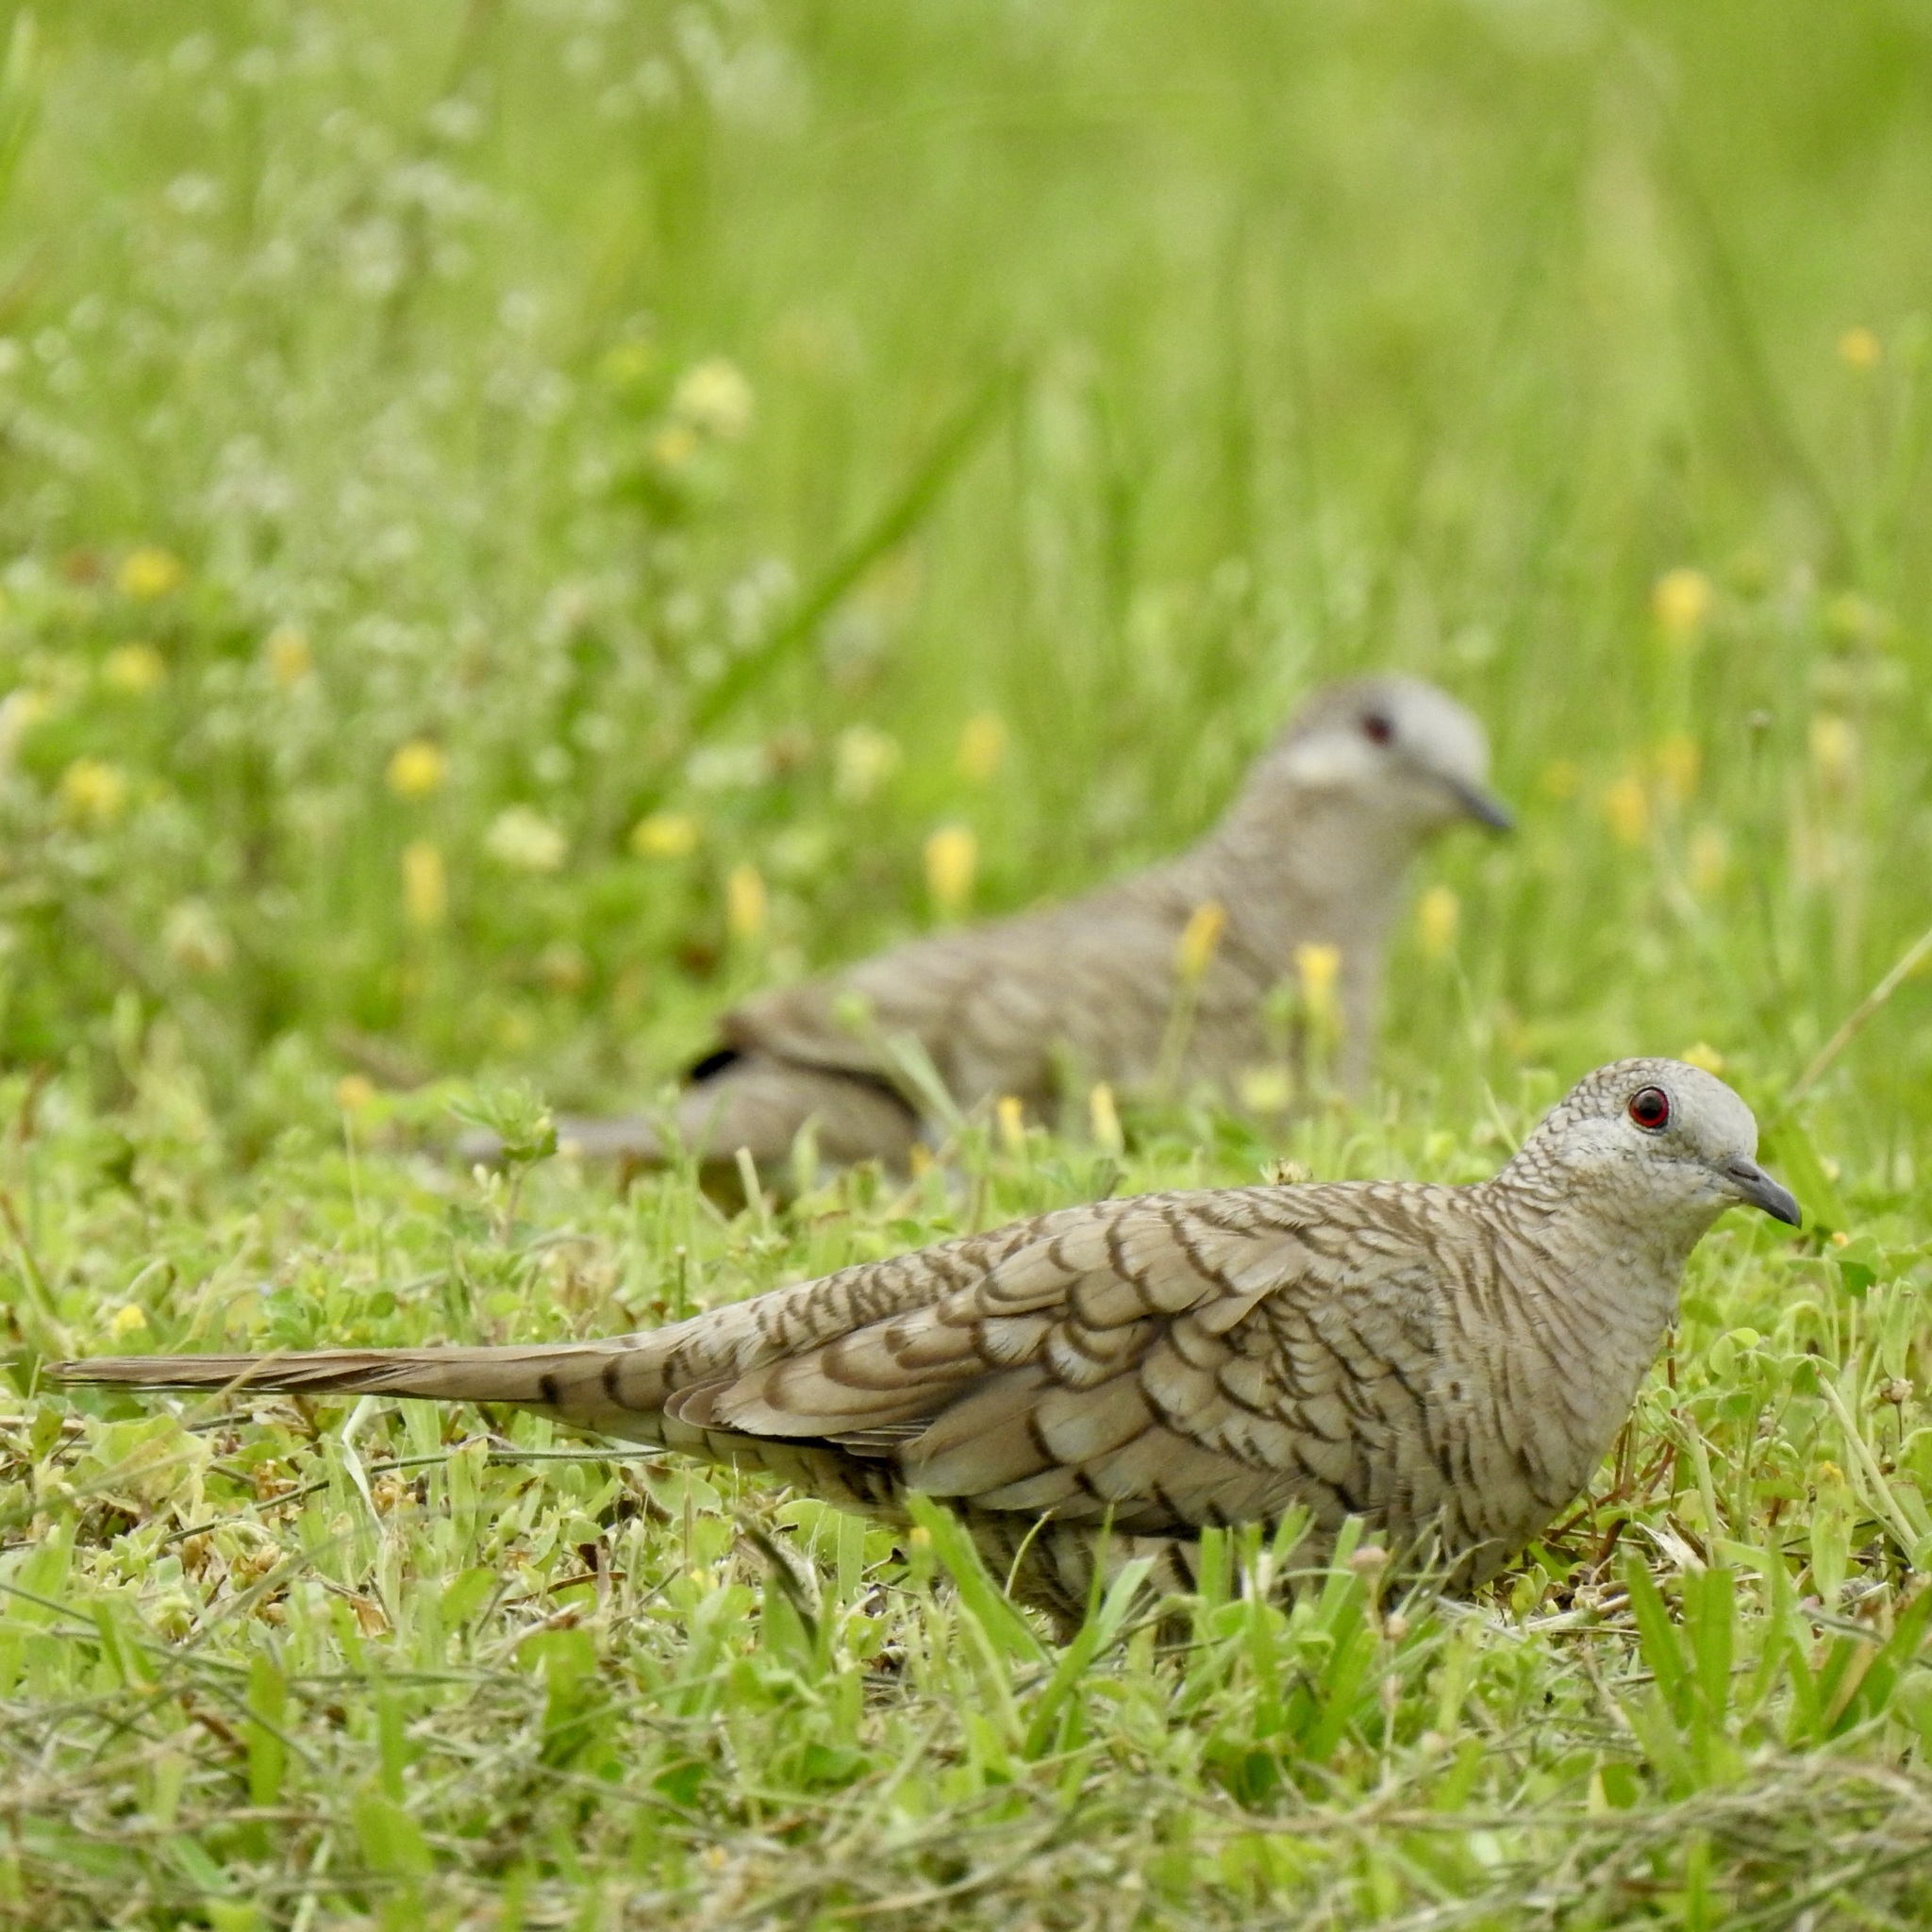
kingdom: Animalia
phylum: Chordata
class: Aves
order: Columbiformes
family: Columbidae
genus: Columbina
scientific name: Columbina inca
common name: Inca dove
